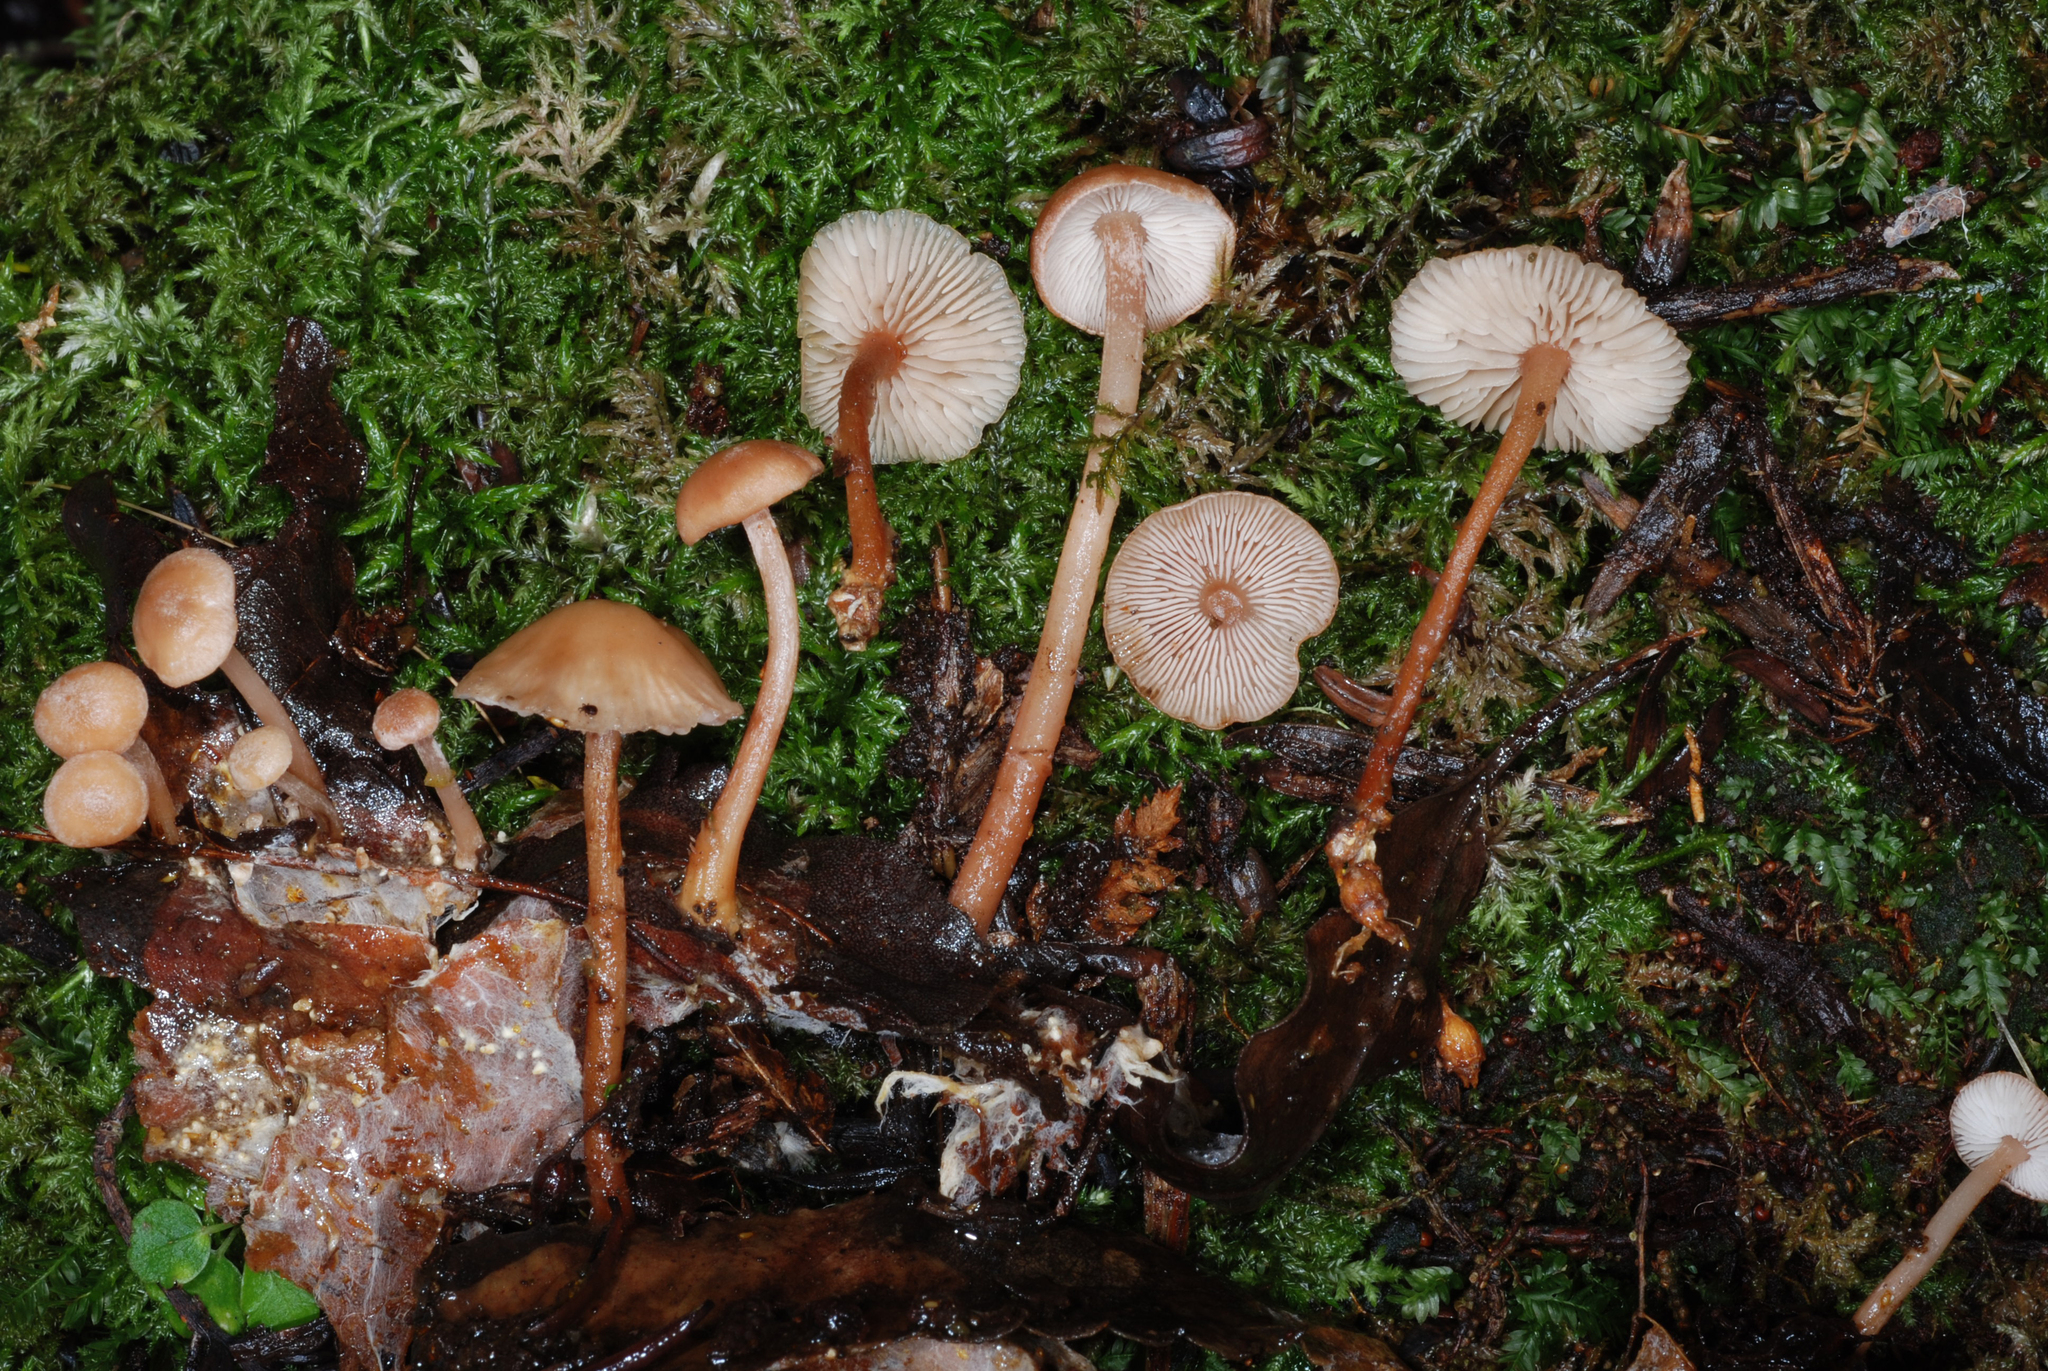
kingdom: Fungi
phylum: Basidiomycota
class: Agaricomycetes
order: Agaricales
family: Omphalotaceae
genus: Collybiopsis
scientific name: Collybiopsis rimutaka
